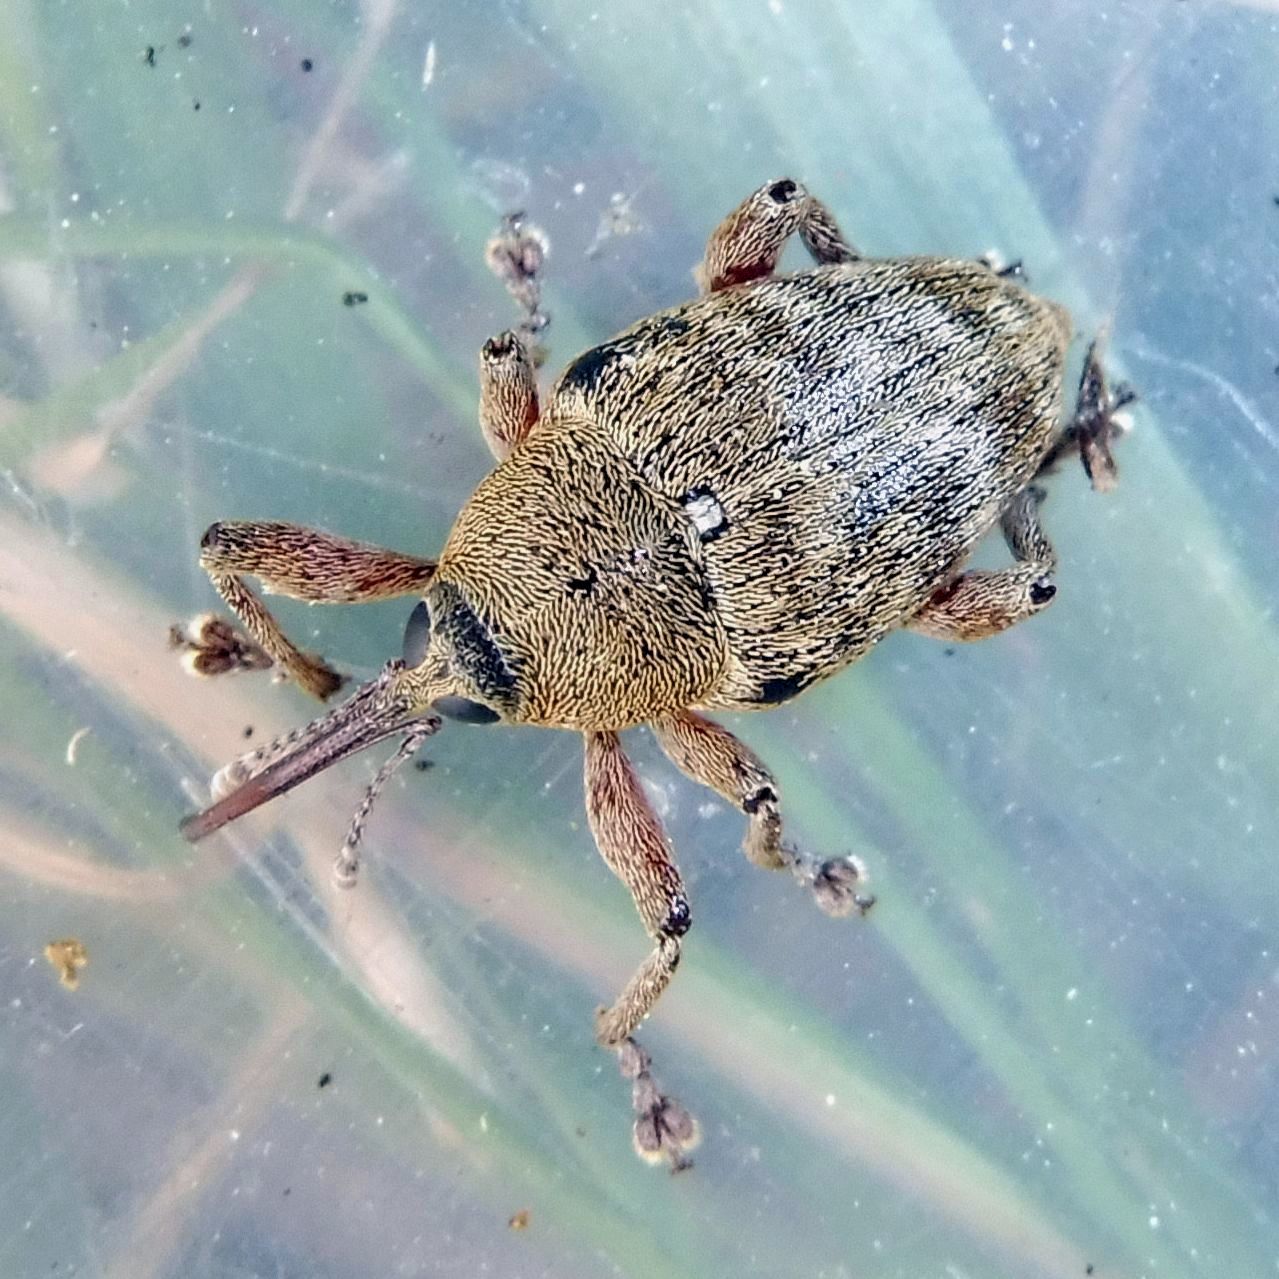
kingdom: Animalia
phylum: Arthropoda
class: Insecta
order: Coleoptera
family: Curculionidae
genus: Curculio
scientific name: Curculio glandium
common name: Acorn weevil
